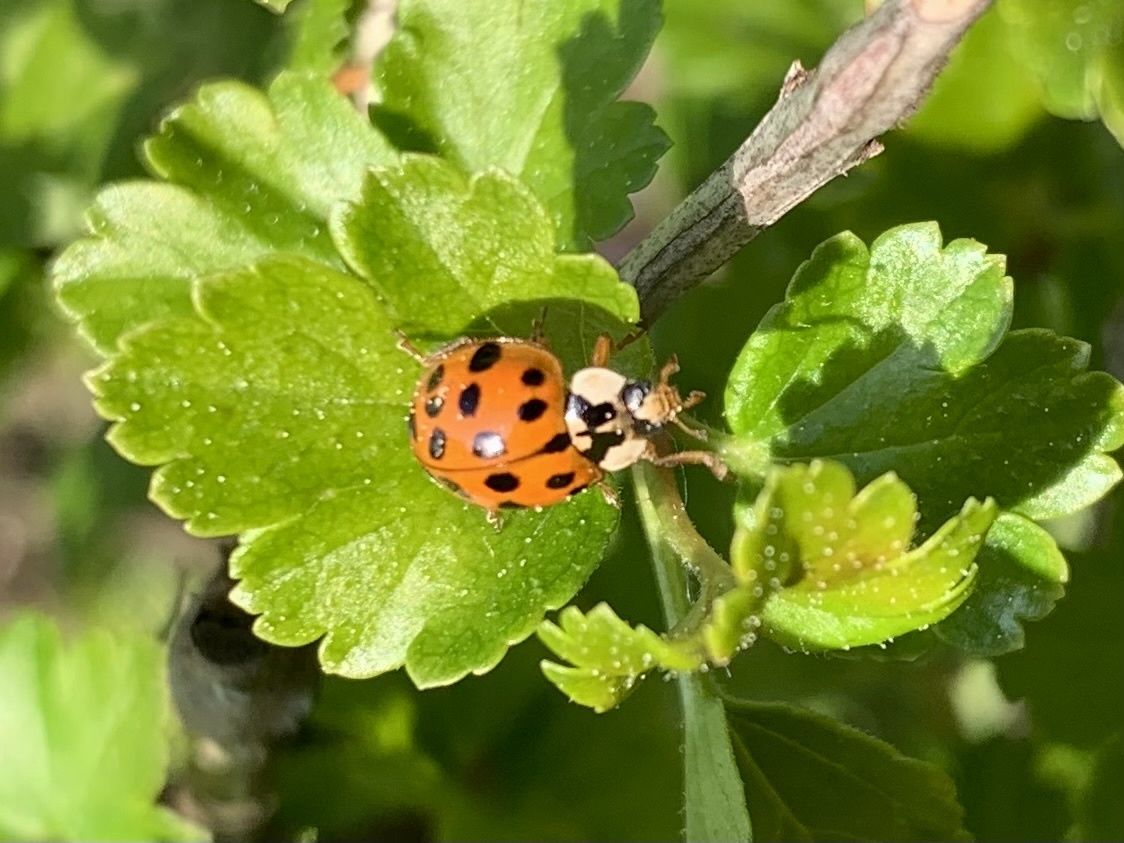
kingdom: Animalia
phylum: Arthropoda
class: Insecta
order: Coleoptera
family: Coccinellidae
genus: Harmonia
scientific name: Harmonia axyridis
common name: Harlequin ladybird
